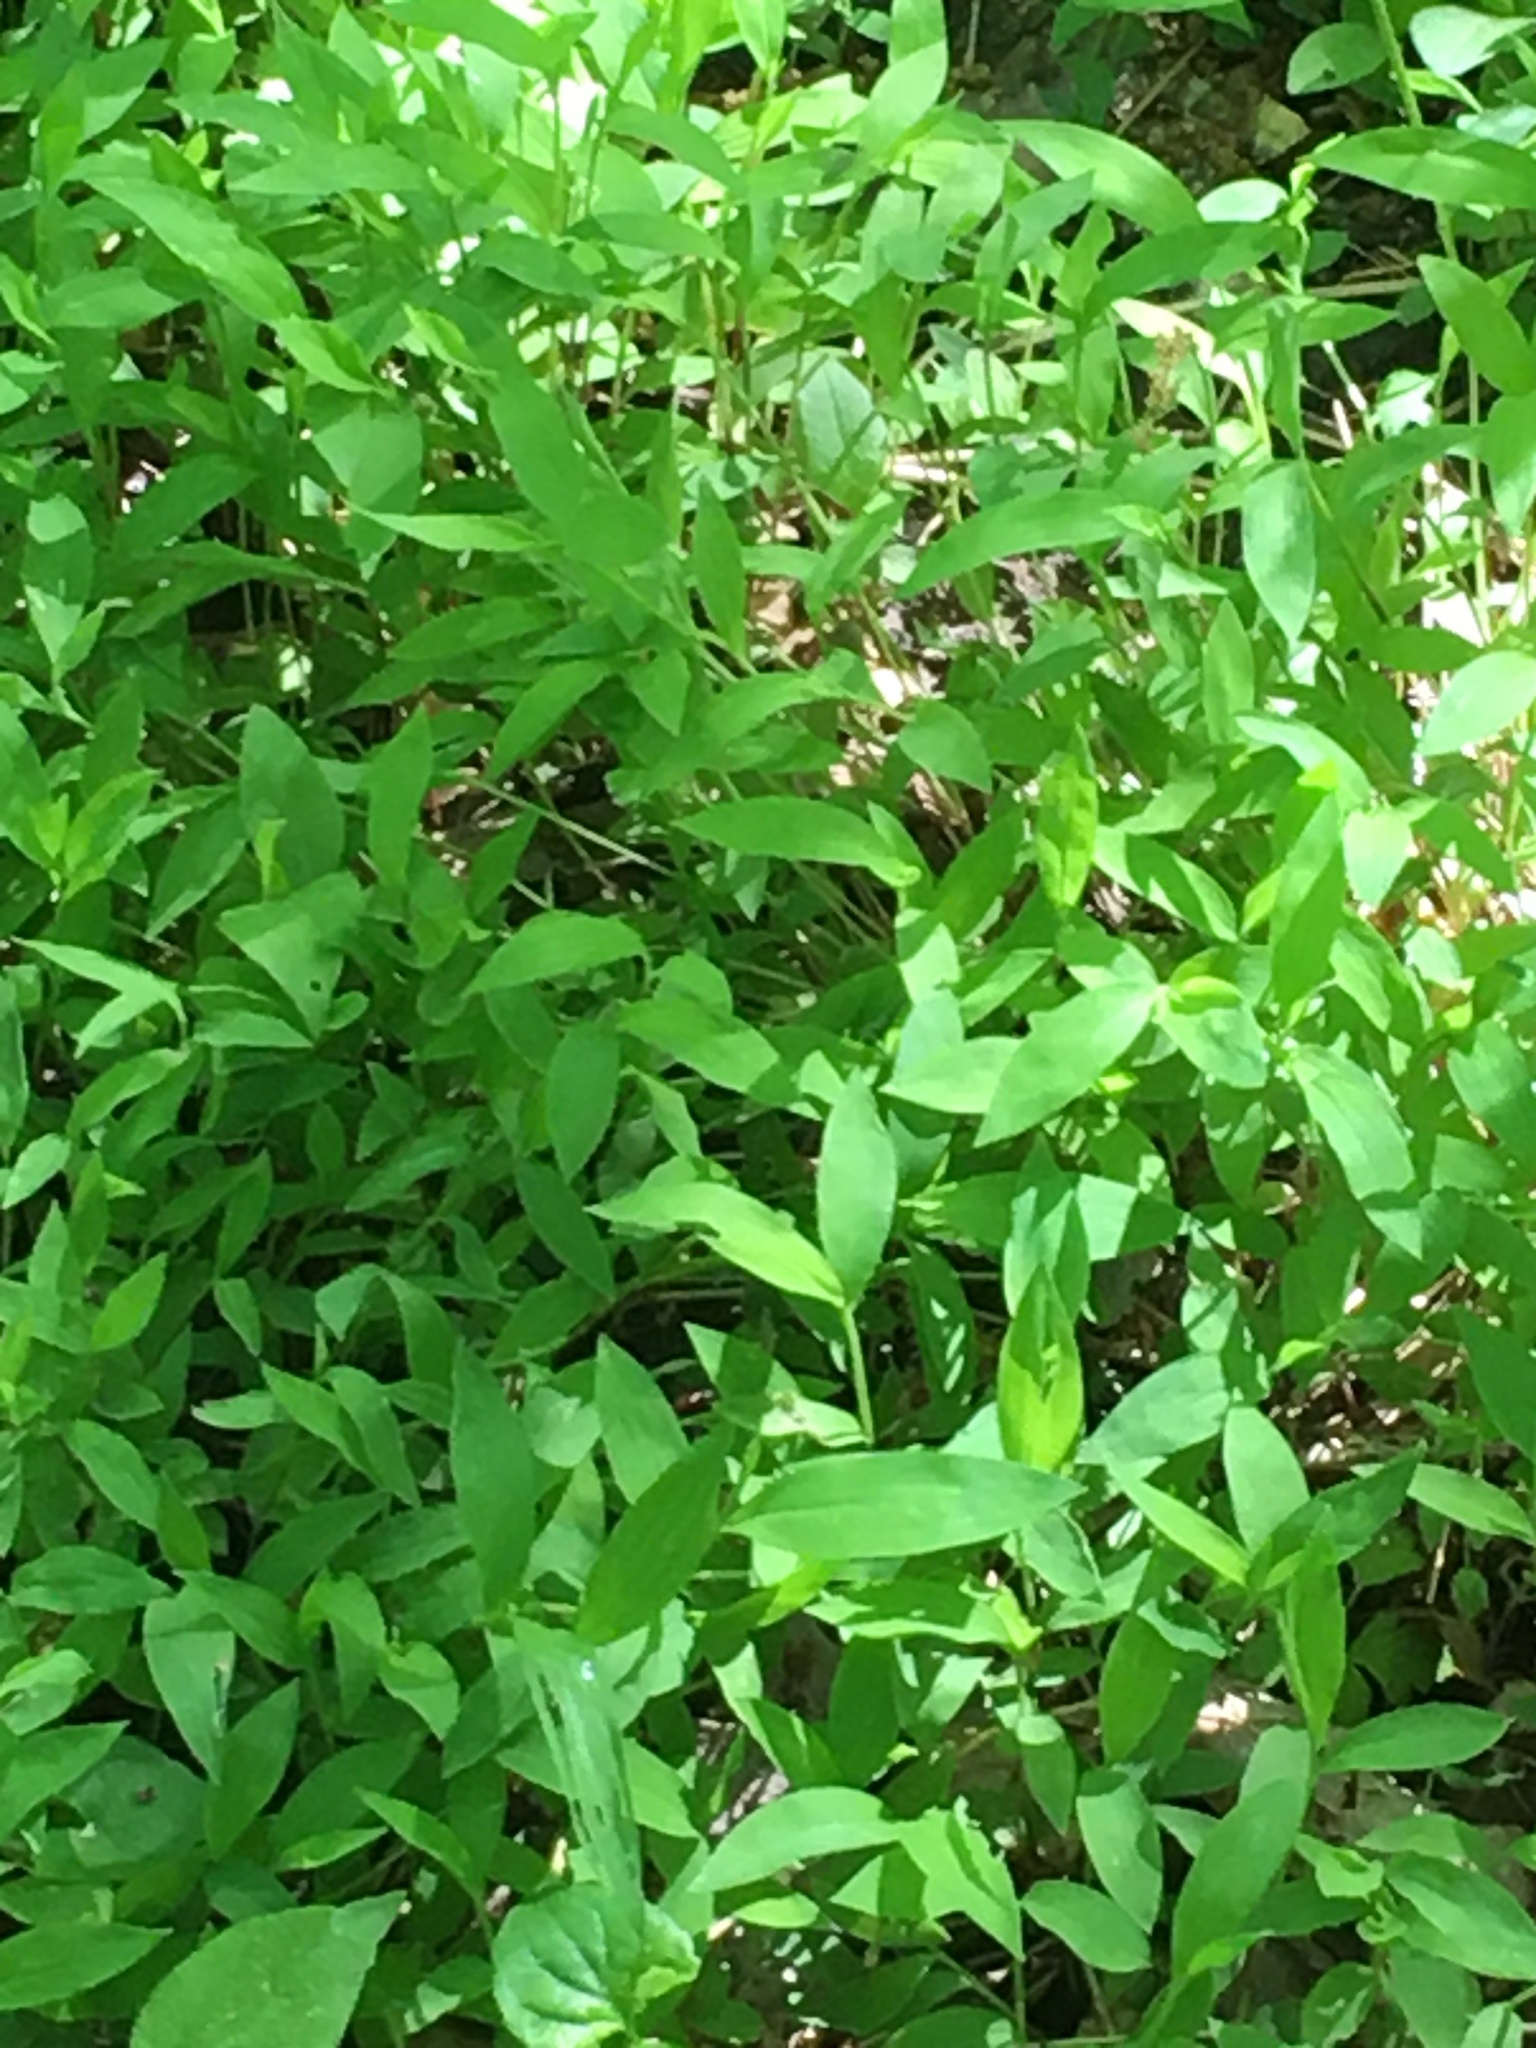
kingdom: Plantae
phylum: Tracheophyta
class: Liliopsida
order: Poales
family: Poaceae
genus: Microstegium
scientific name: Microstegium vimineum
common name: Japanese stiltgrass
